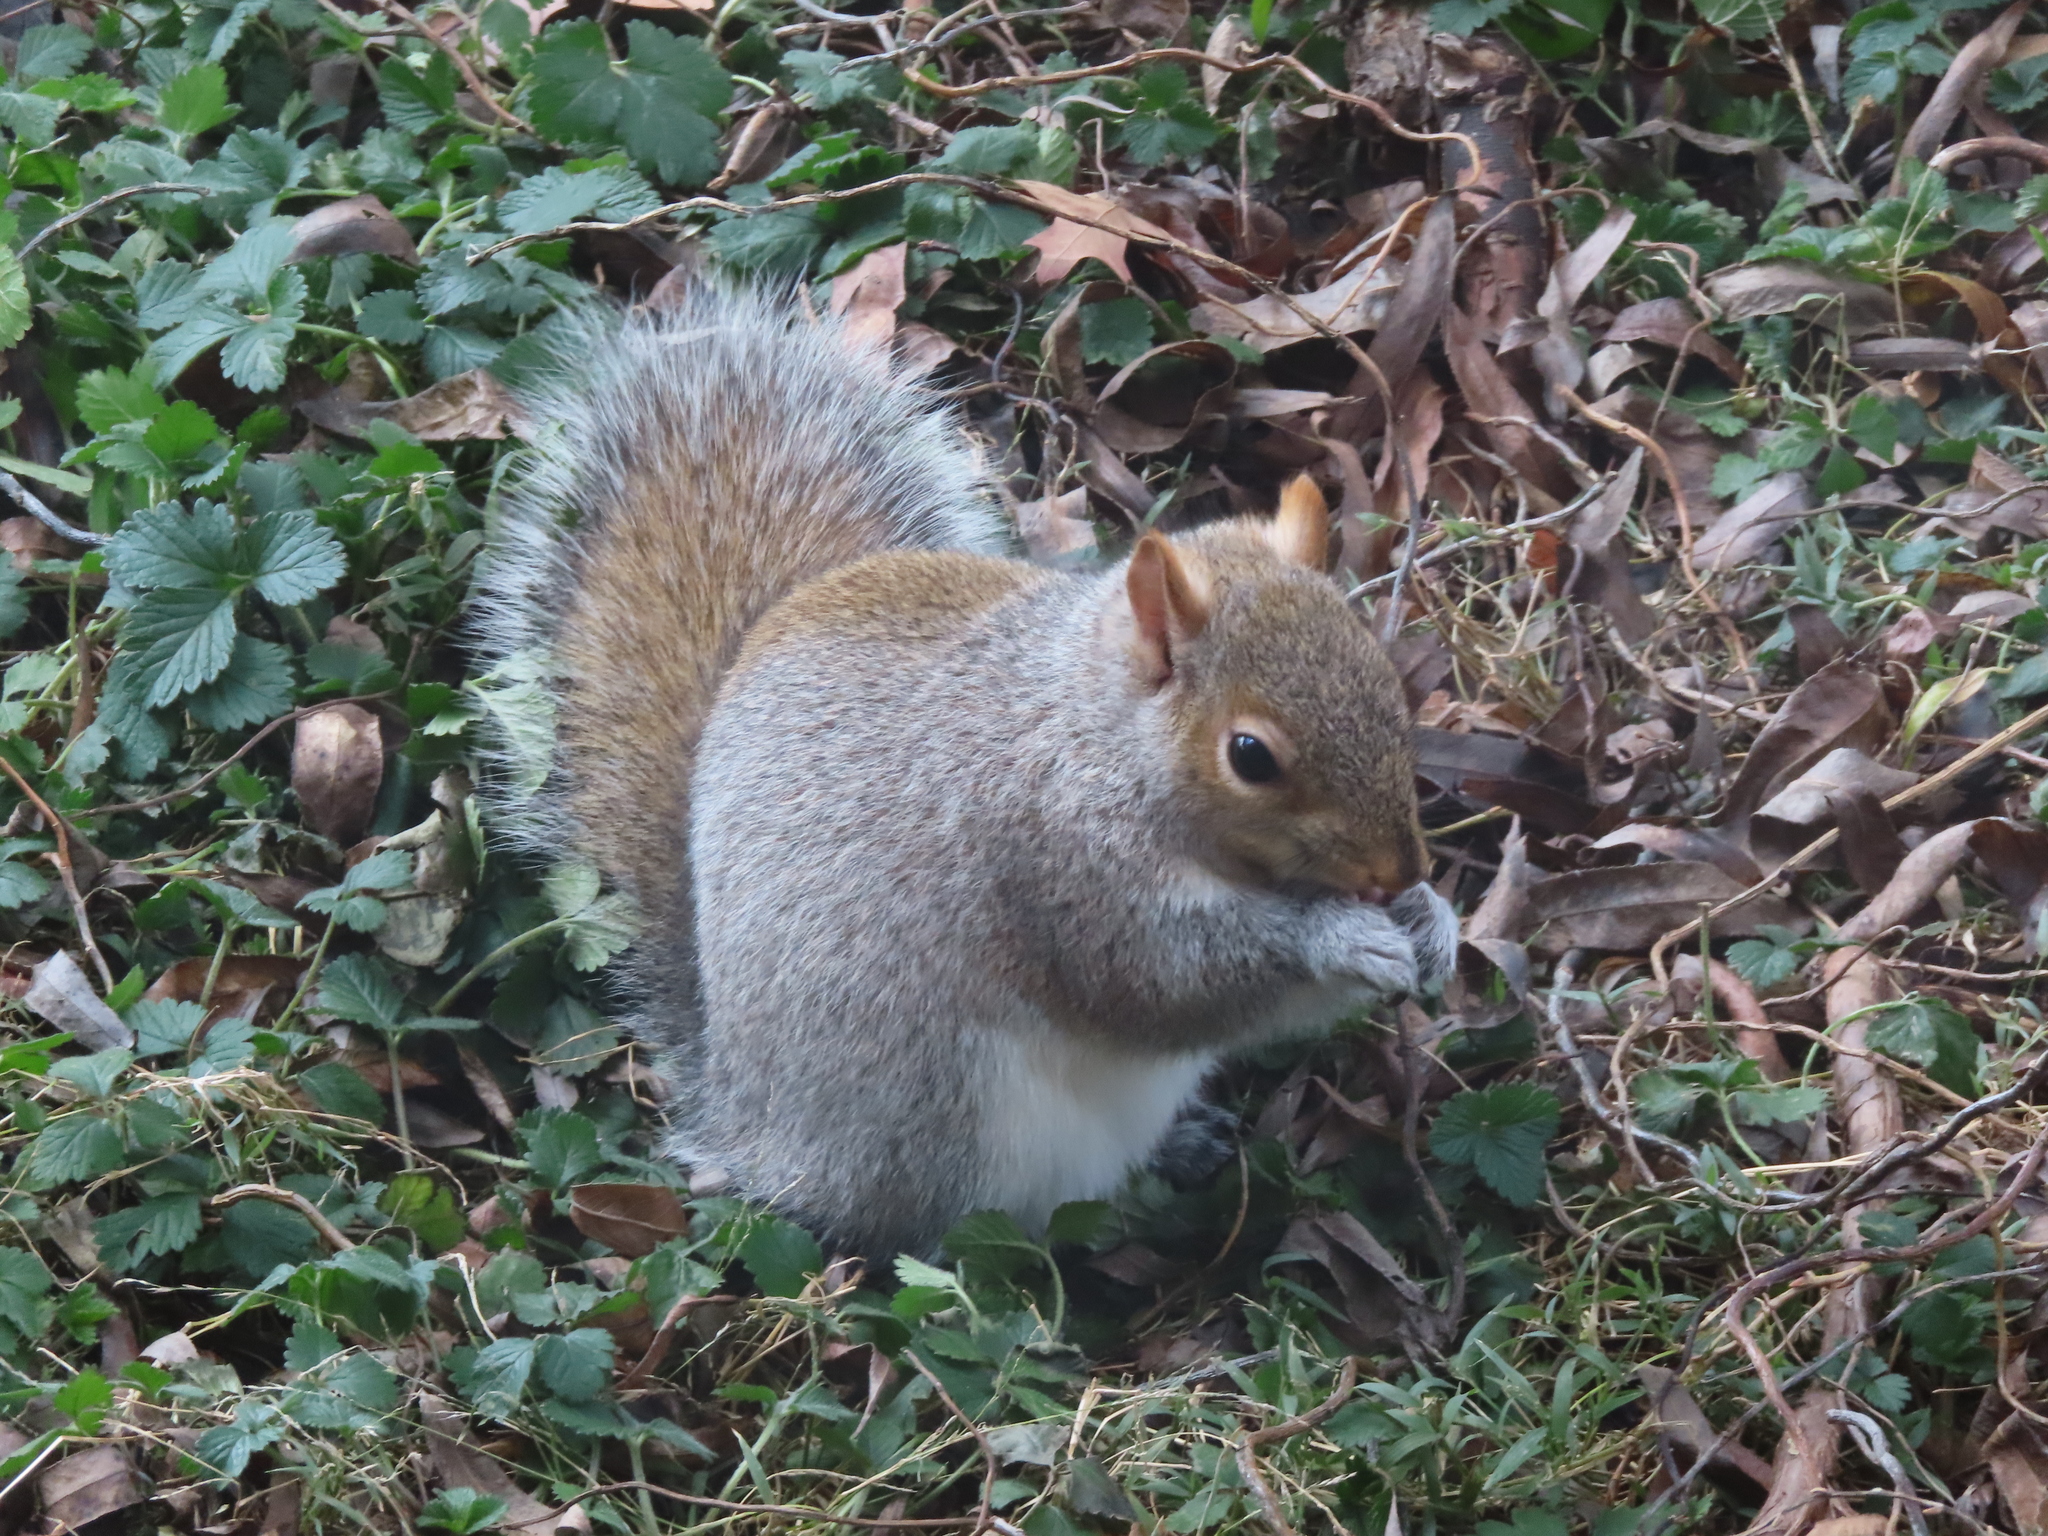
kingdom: Animalia
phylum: Chordata
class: Mammalia
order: Rodentia
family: Sciuridae
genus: Sciurus
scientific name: Sciurus carolinensis
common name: Eastern gray squirrel
